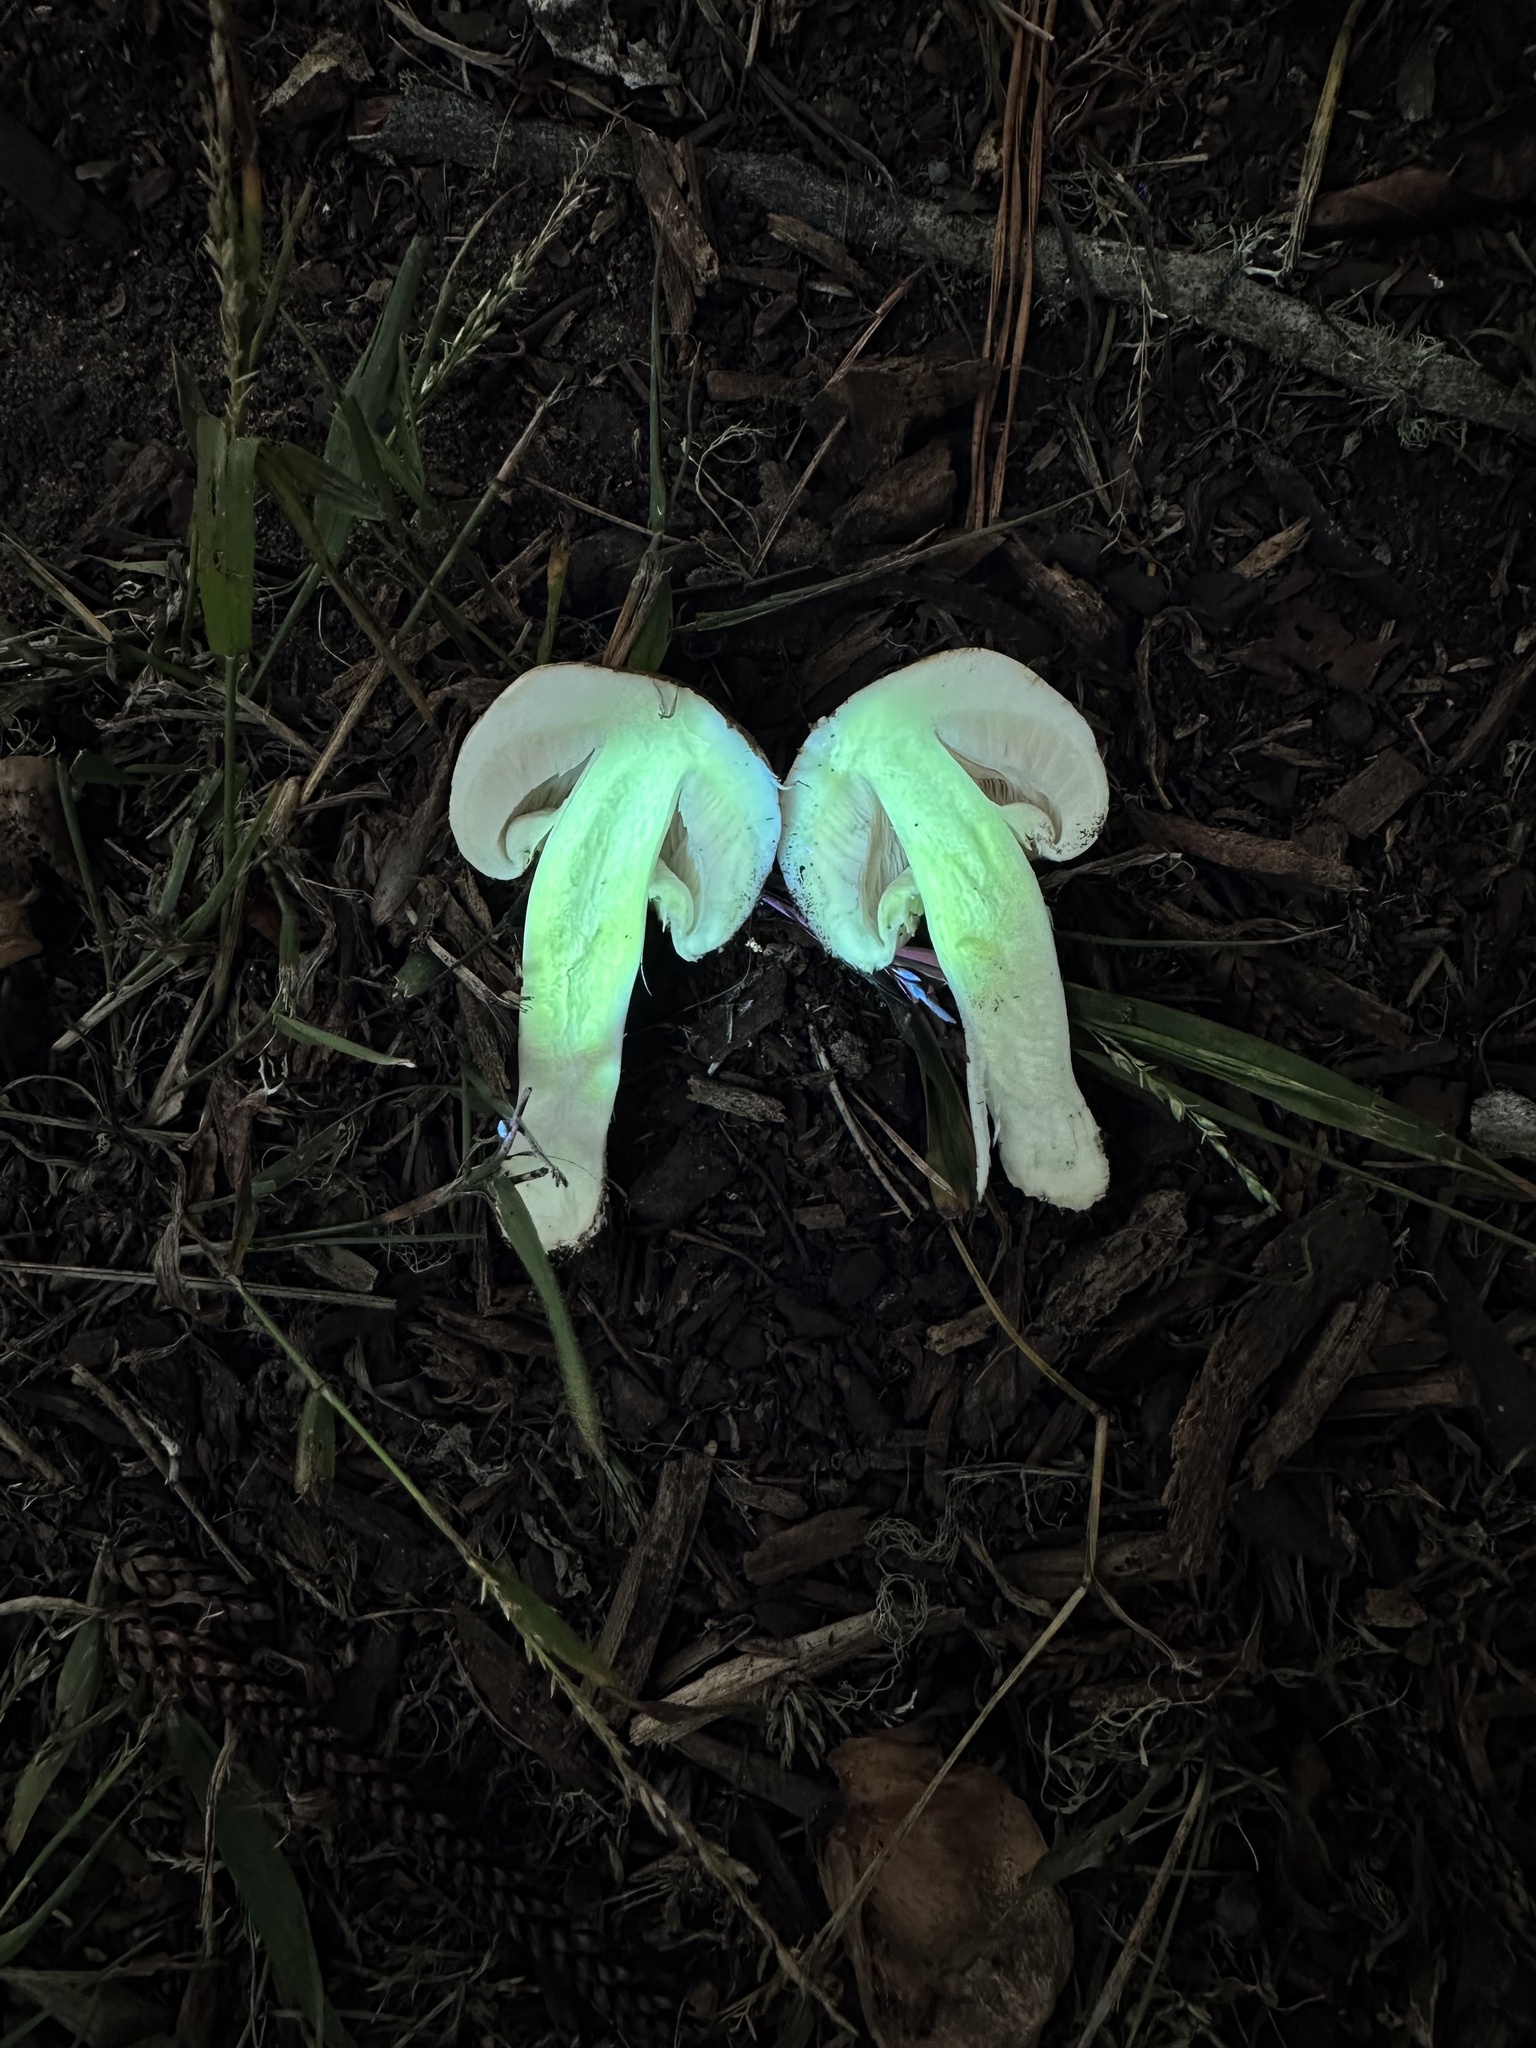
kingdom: Fungi
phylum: Basidiomycota
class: Agaricomycetes
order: Agaricales
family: Agaricaceae
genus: Agaricus
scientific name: Agaricus californicus
